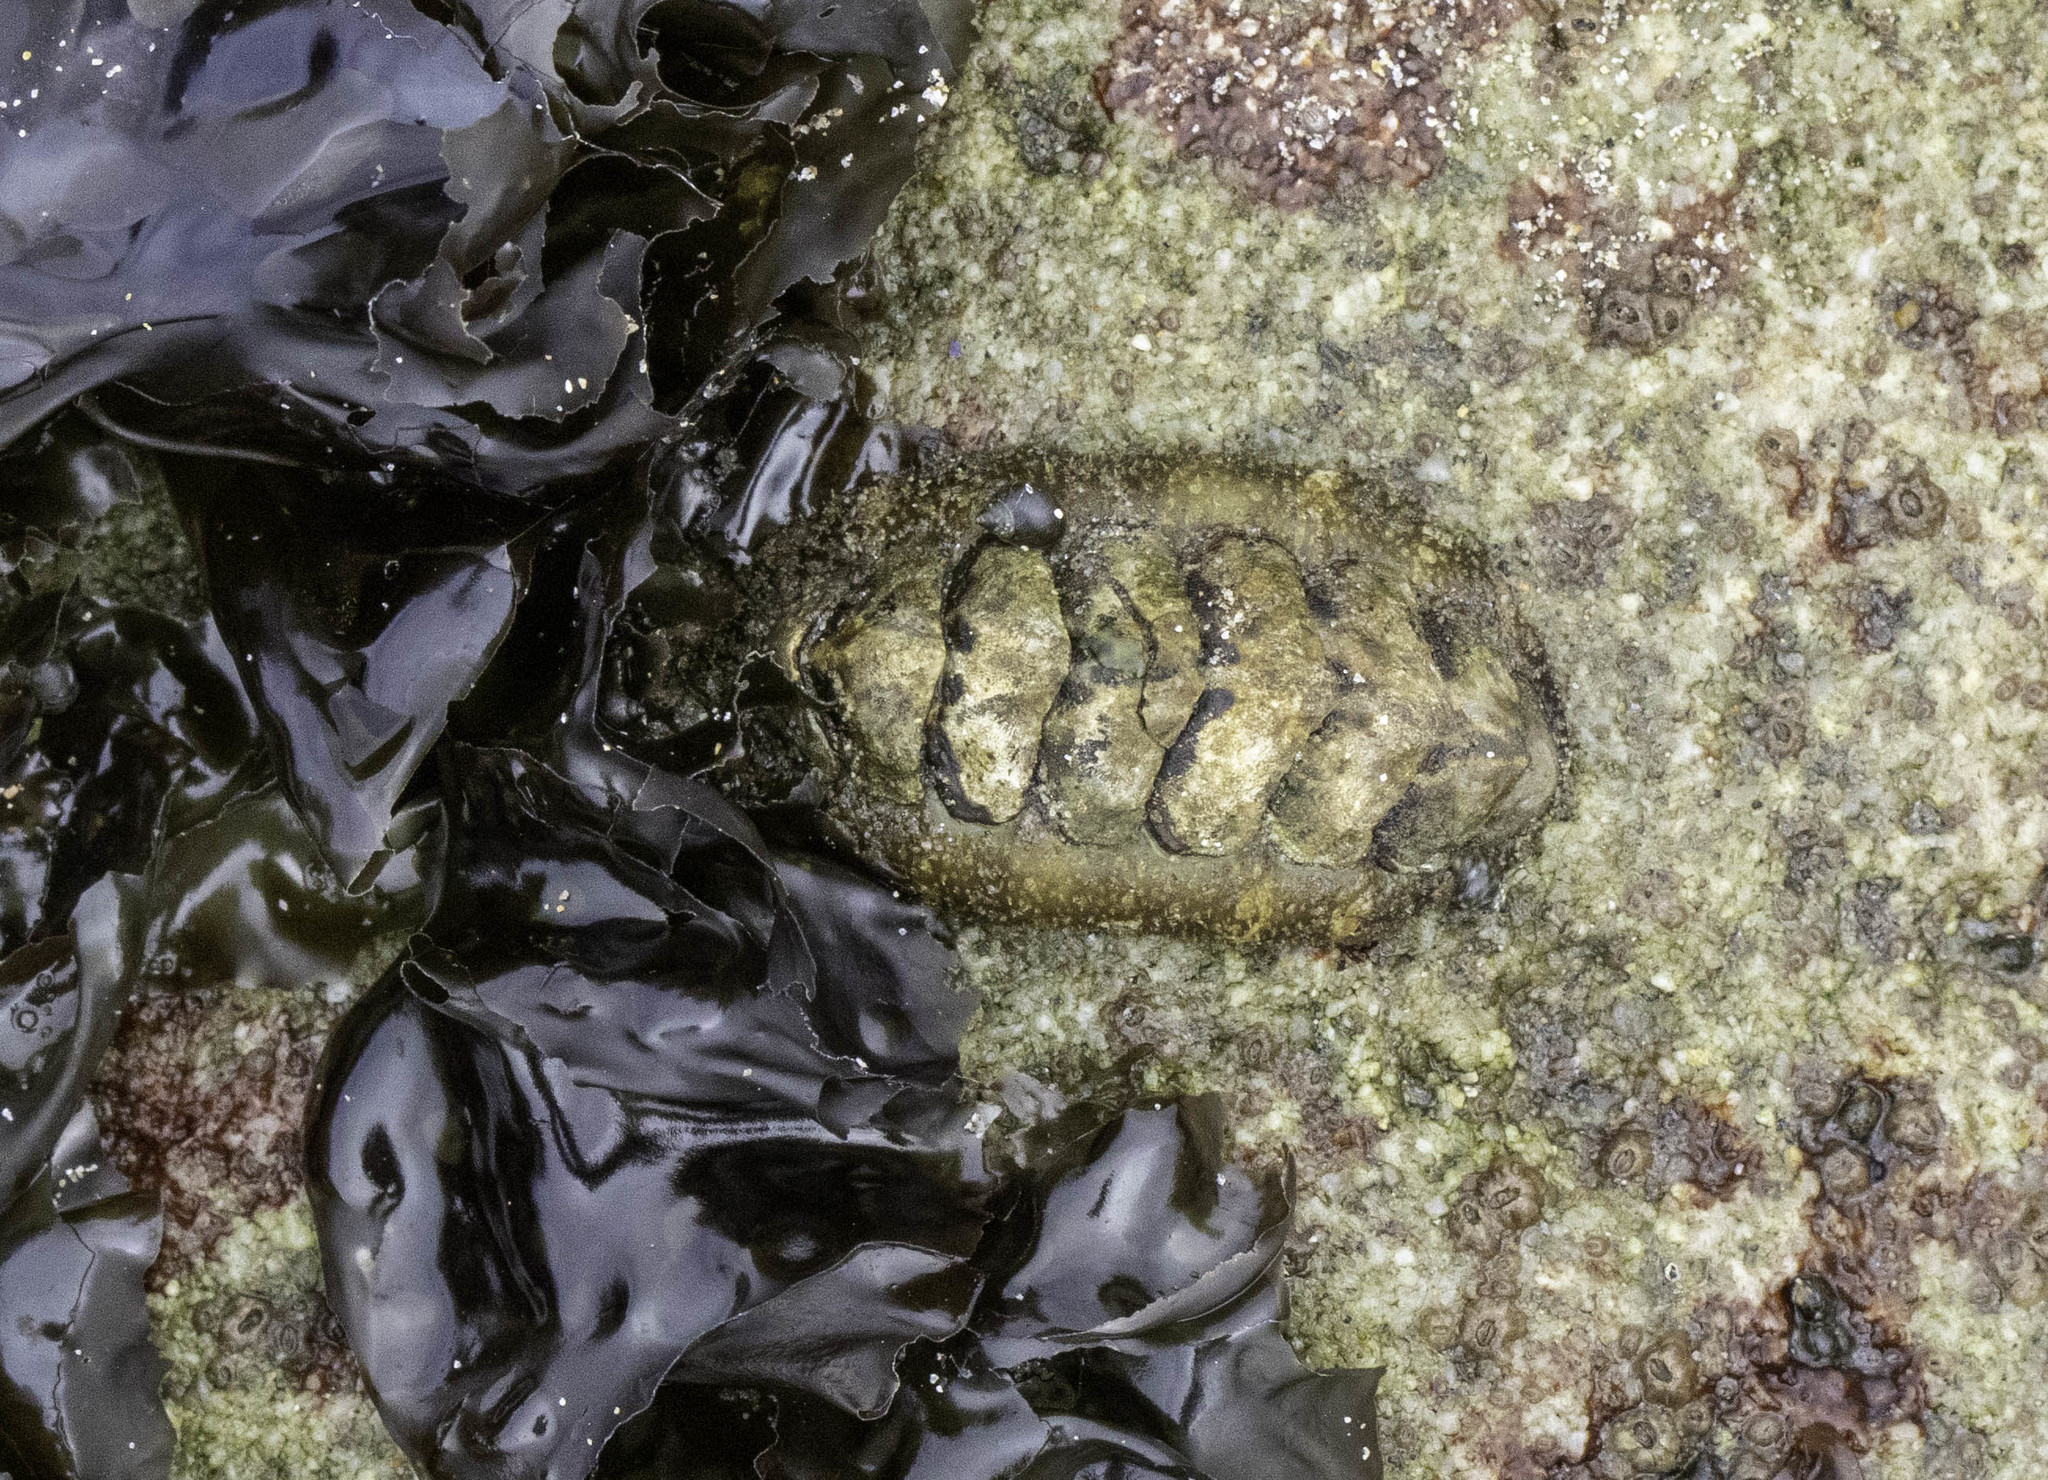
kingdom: Animalia
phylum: Mollusca
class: Polyplacophora
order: Chitonida
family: Mopaliidae
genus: Mopalia
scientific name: Mopalia muscosa
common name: Mossy chiton
